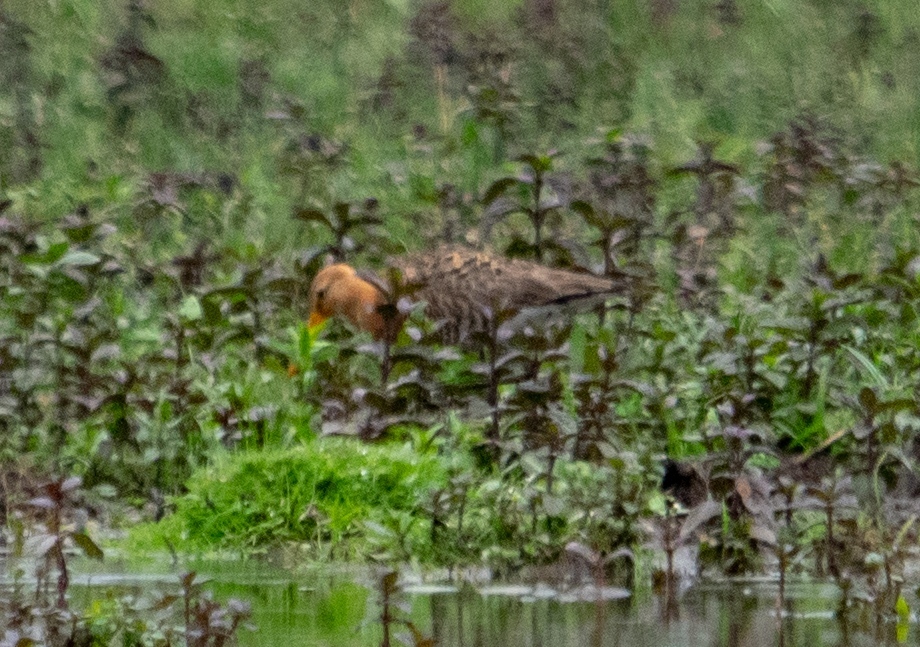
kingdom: Animalia
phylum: Chordata
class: Aves
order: Charadriiformes
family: Scolopacidae
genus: Limosa
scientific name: Limosa limosa
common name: Black-tailed godwit
